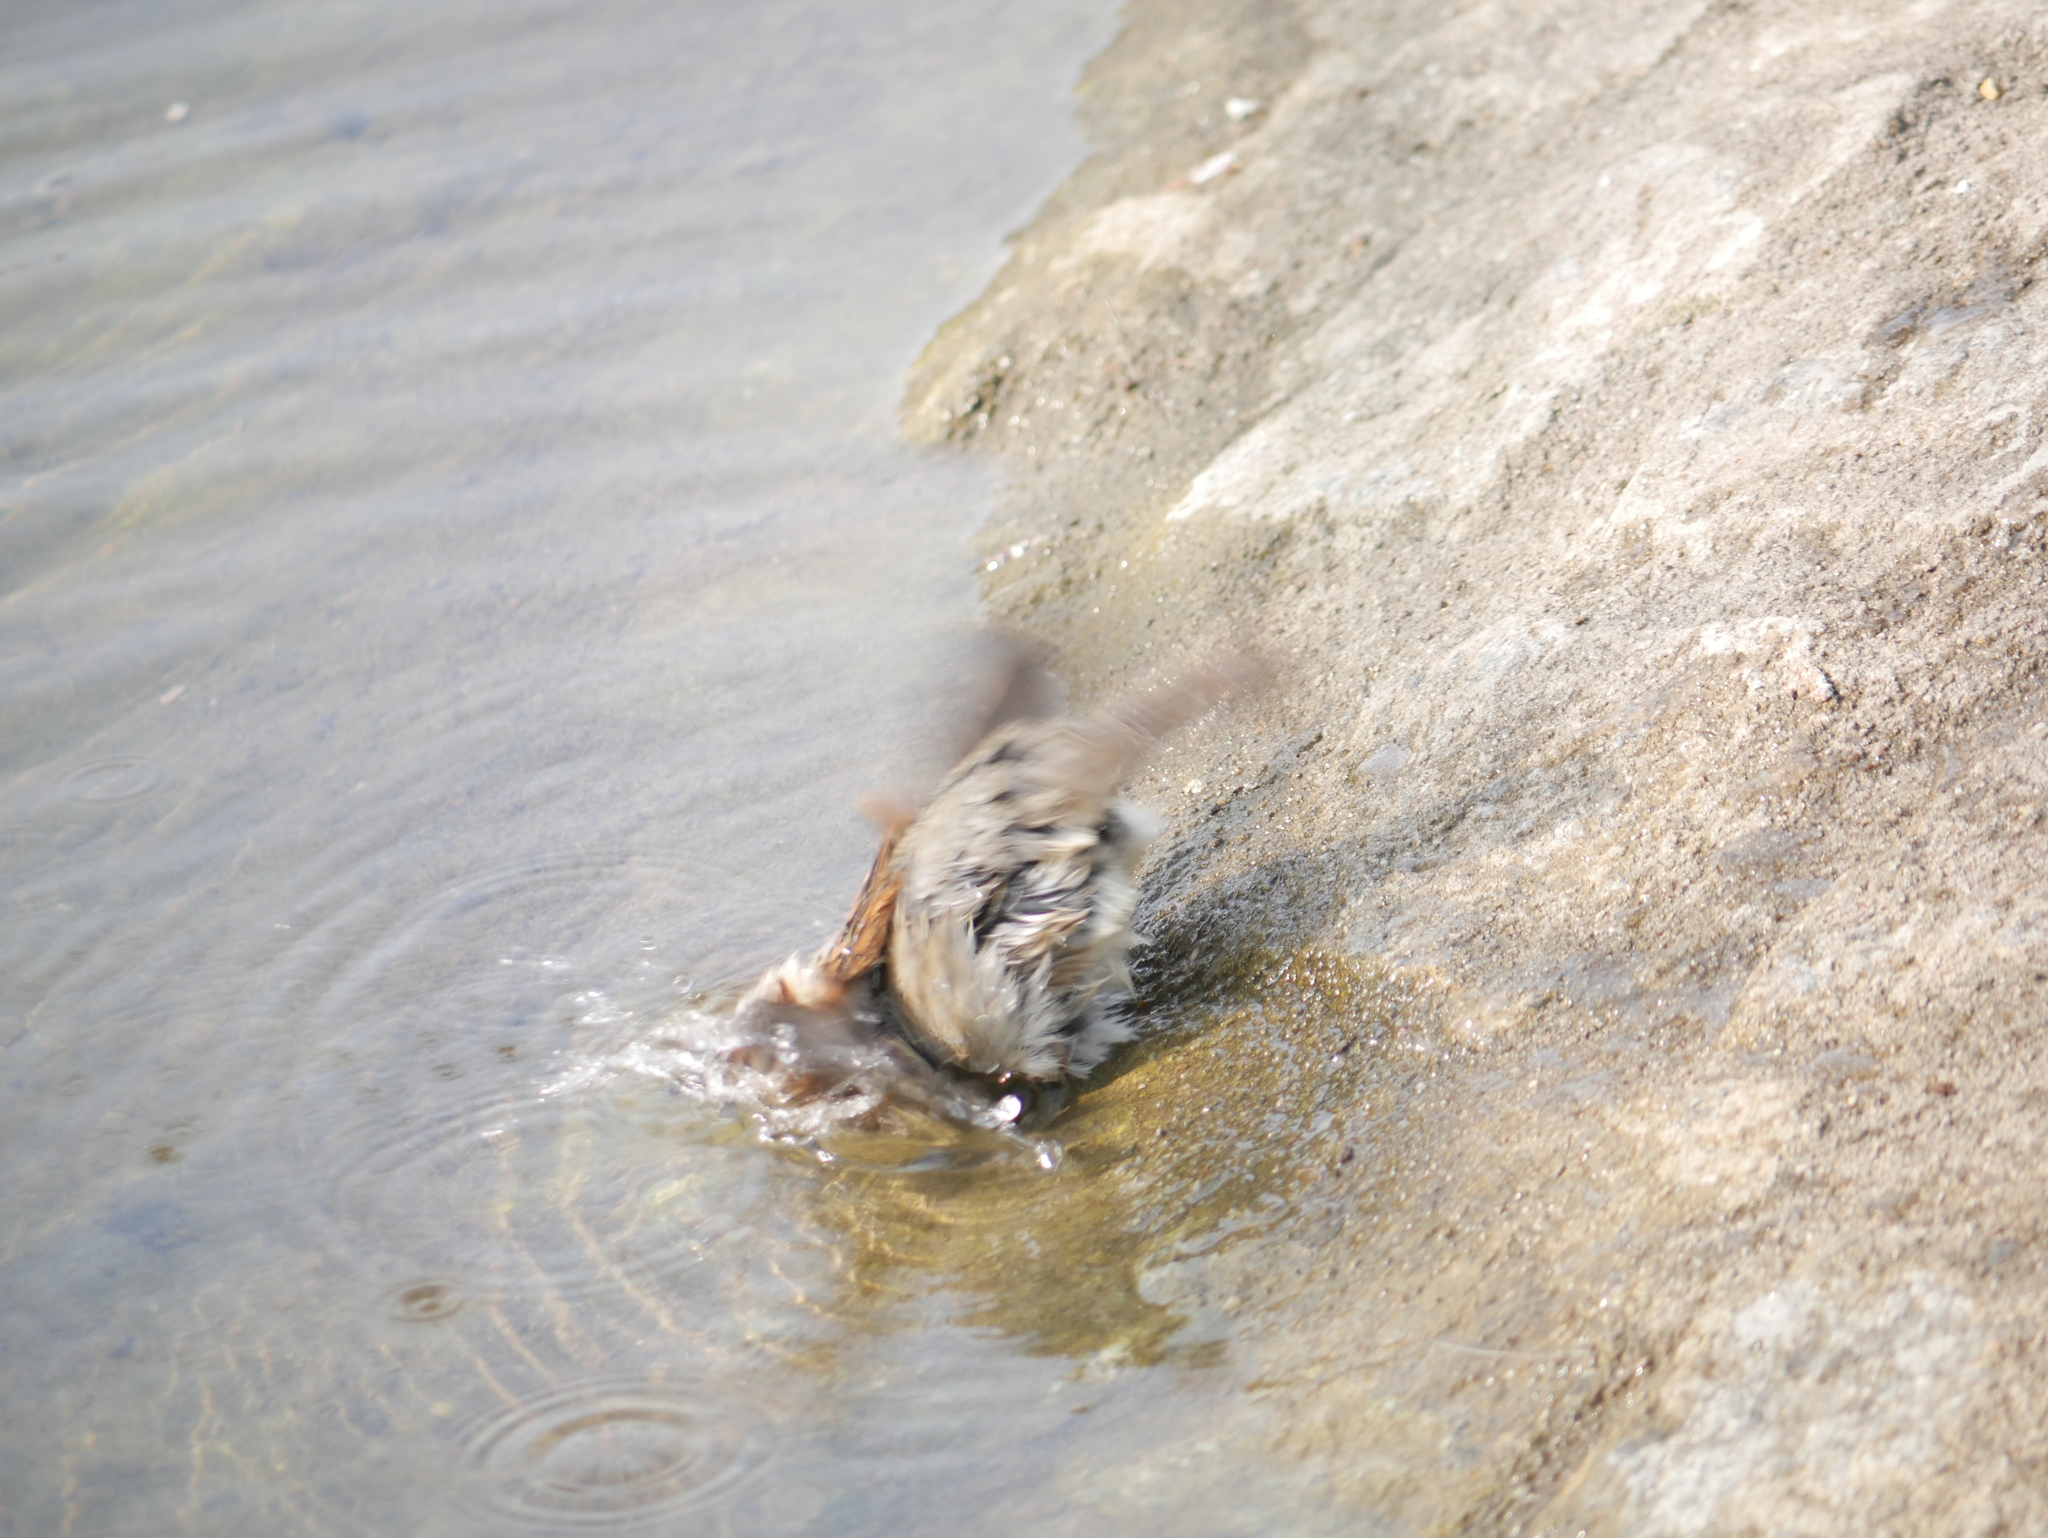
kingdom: Animalia
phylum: Chordata
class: Aves
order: Passeriformes
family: Passeridae
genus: Passer
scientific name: Passer domesticus
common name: House sparrow
